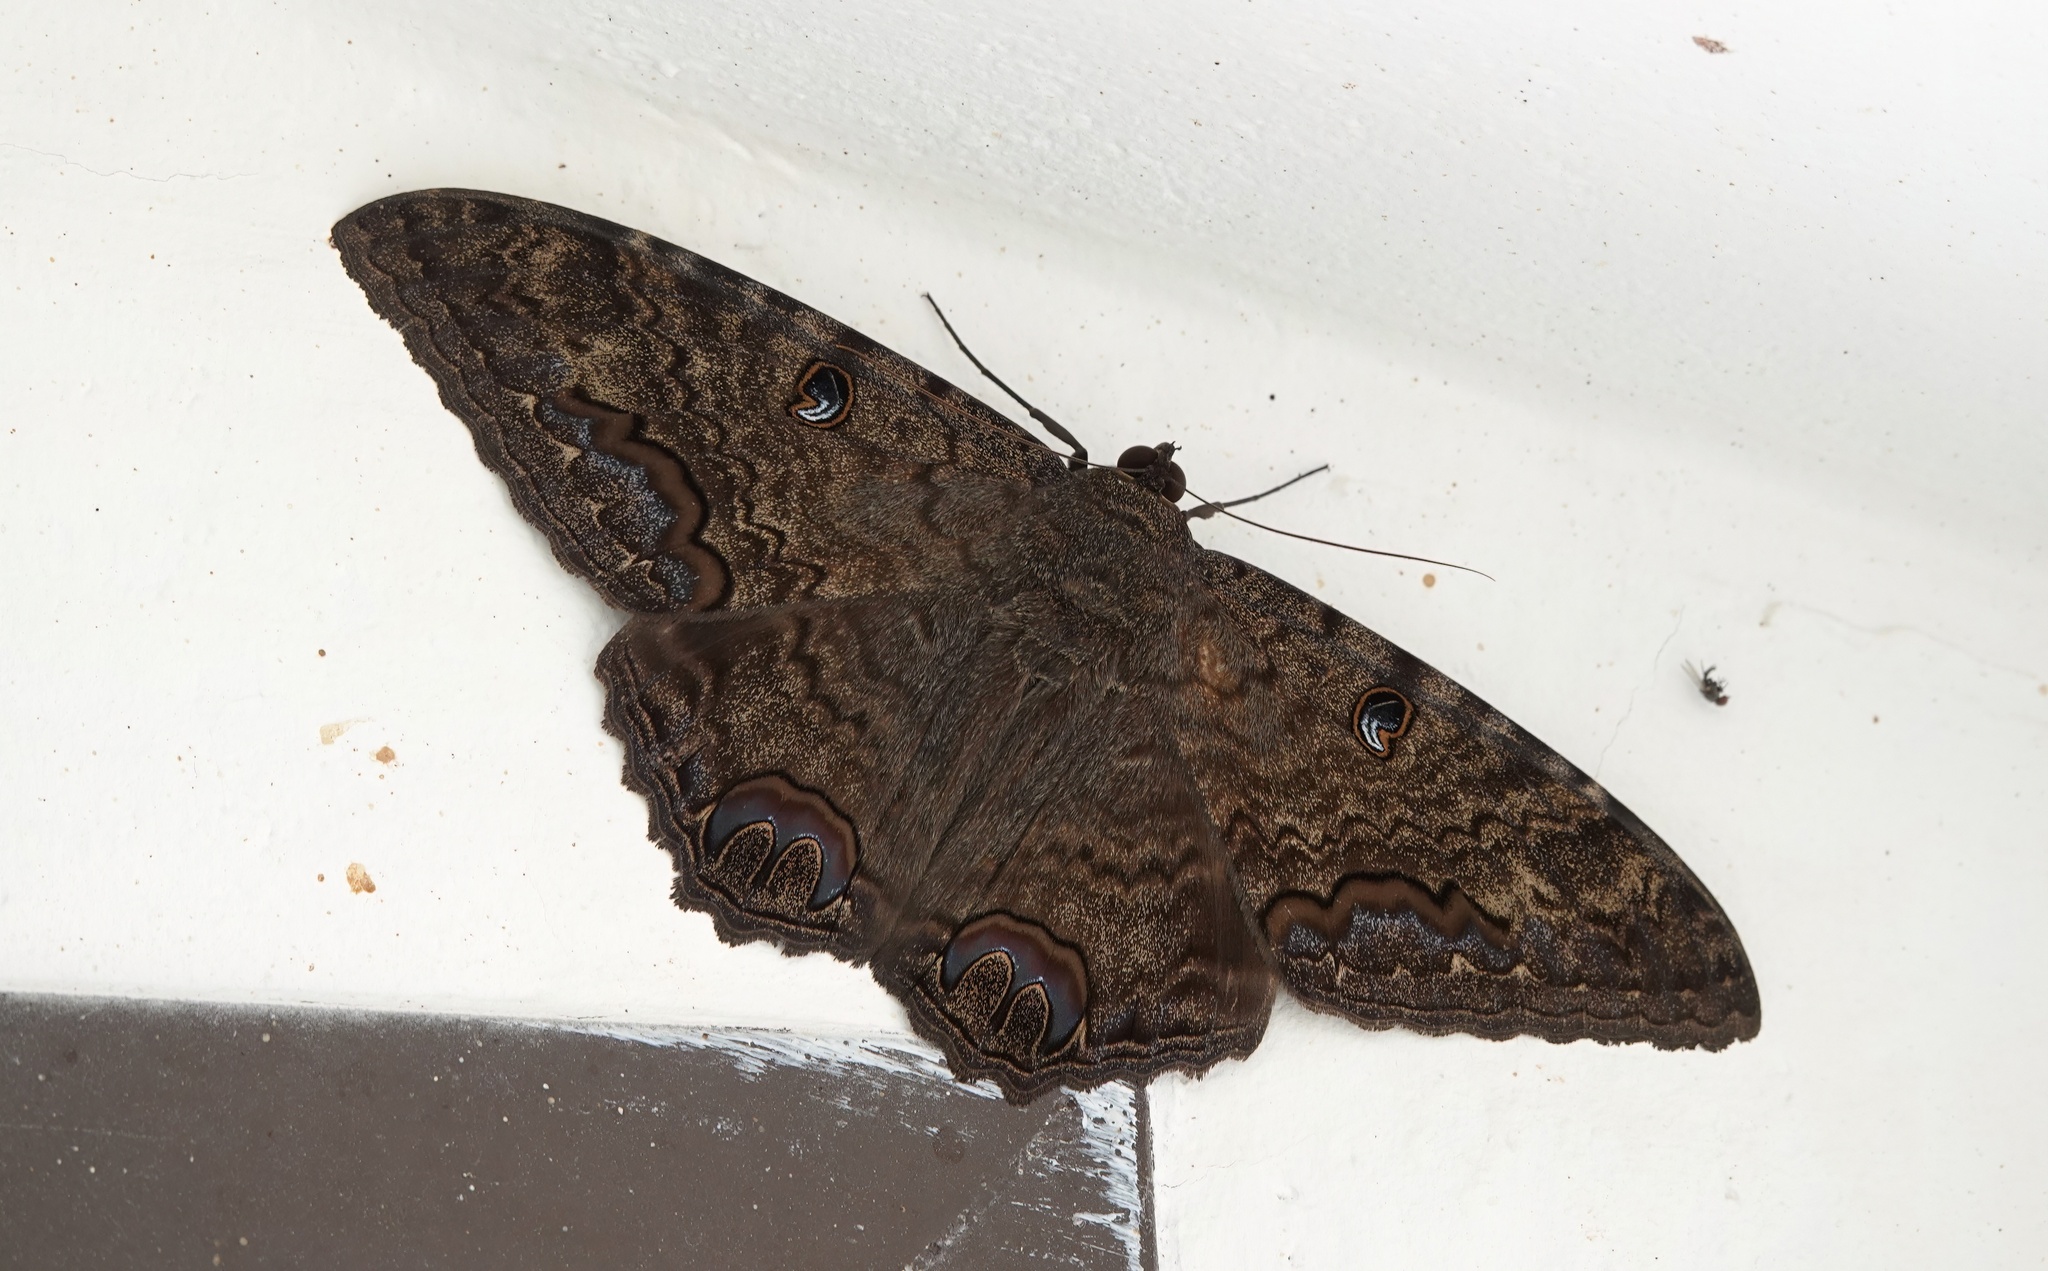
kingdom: Animalia
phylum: Arthropoda
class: Insecta
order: Lepidoptera
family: Erebidae
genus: Ascalapha
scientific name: Ascalapha odorata
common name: Black witch
